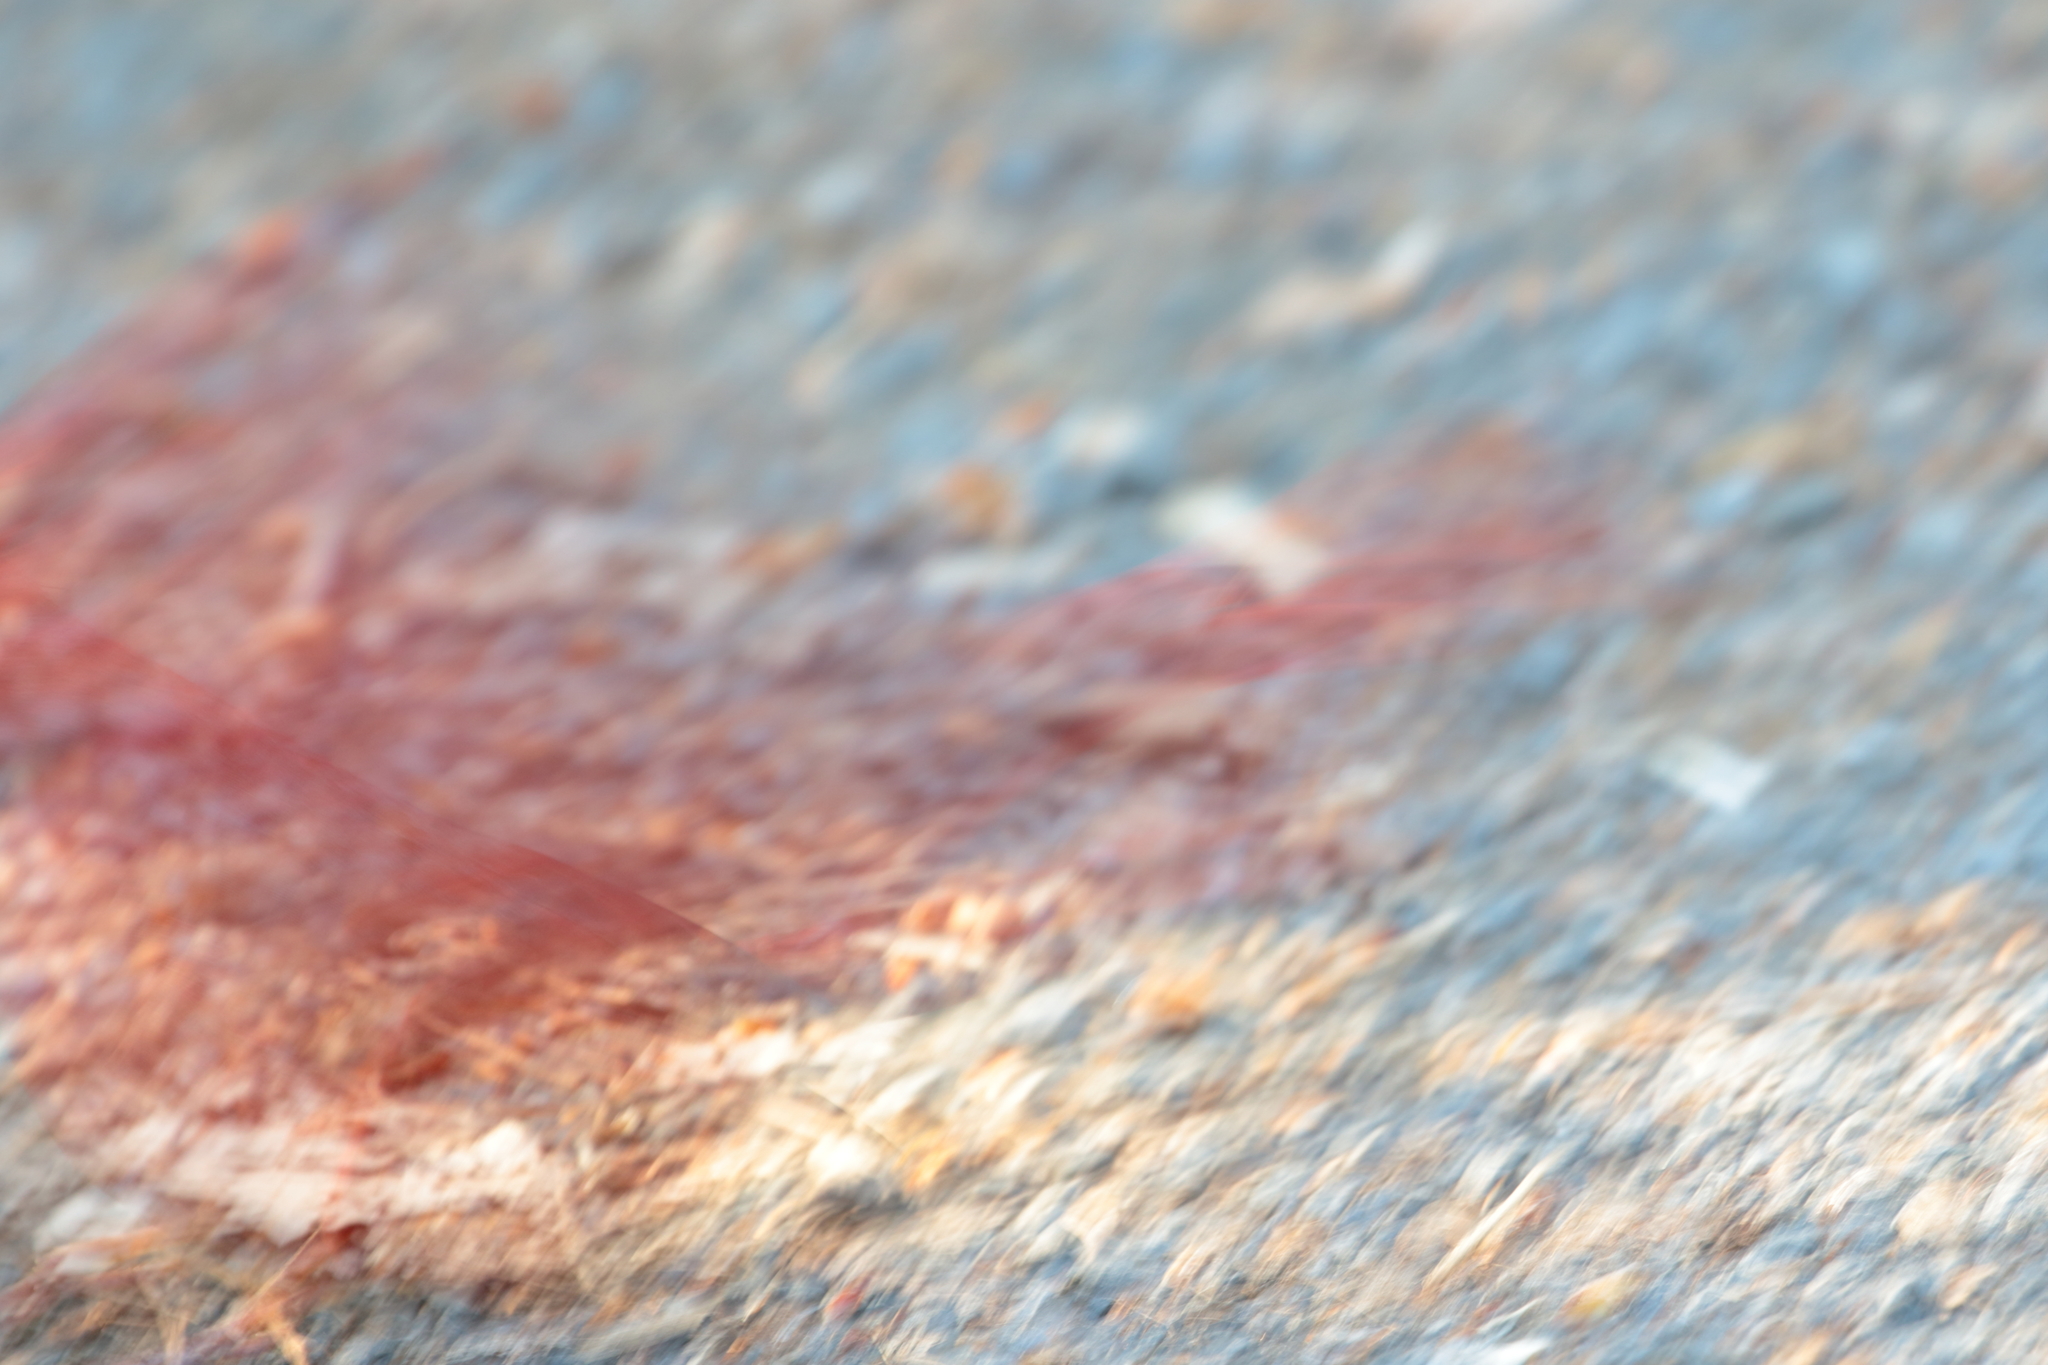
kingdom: Animalia
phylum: Chordata
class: Aves
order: Passeriformes
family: Cardinalidae
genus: Cardinalis
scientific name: Cardinalis cardinalis
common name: Northern cardinal
